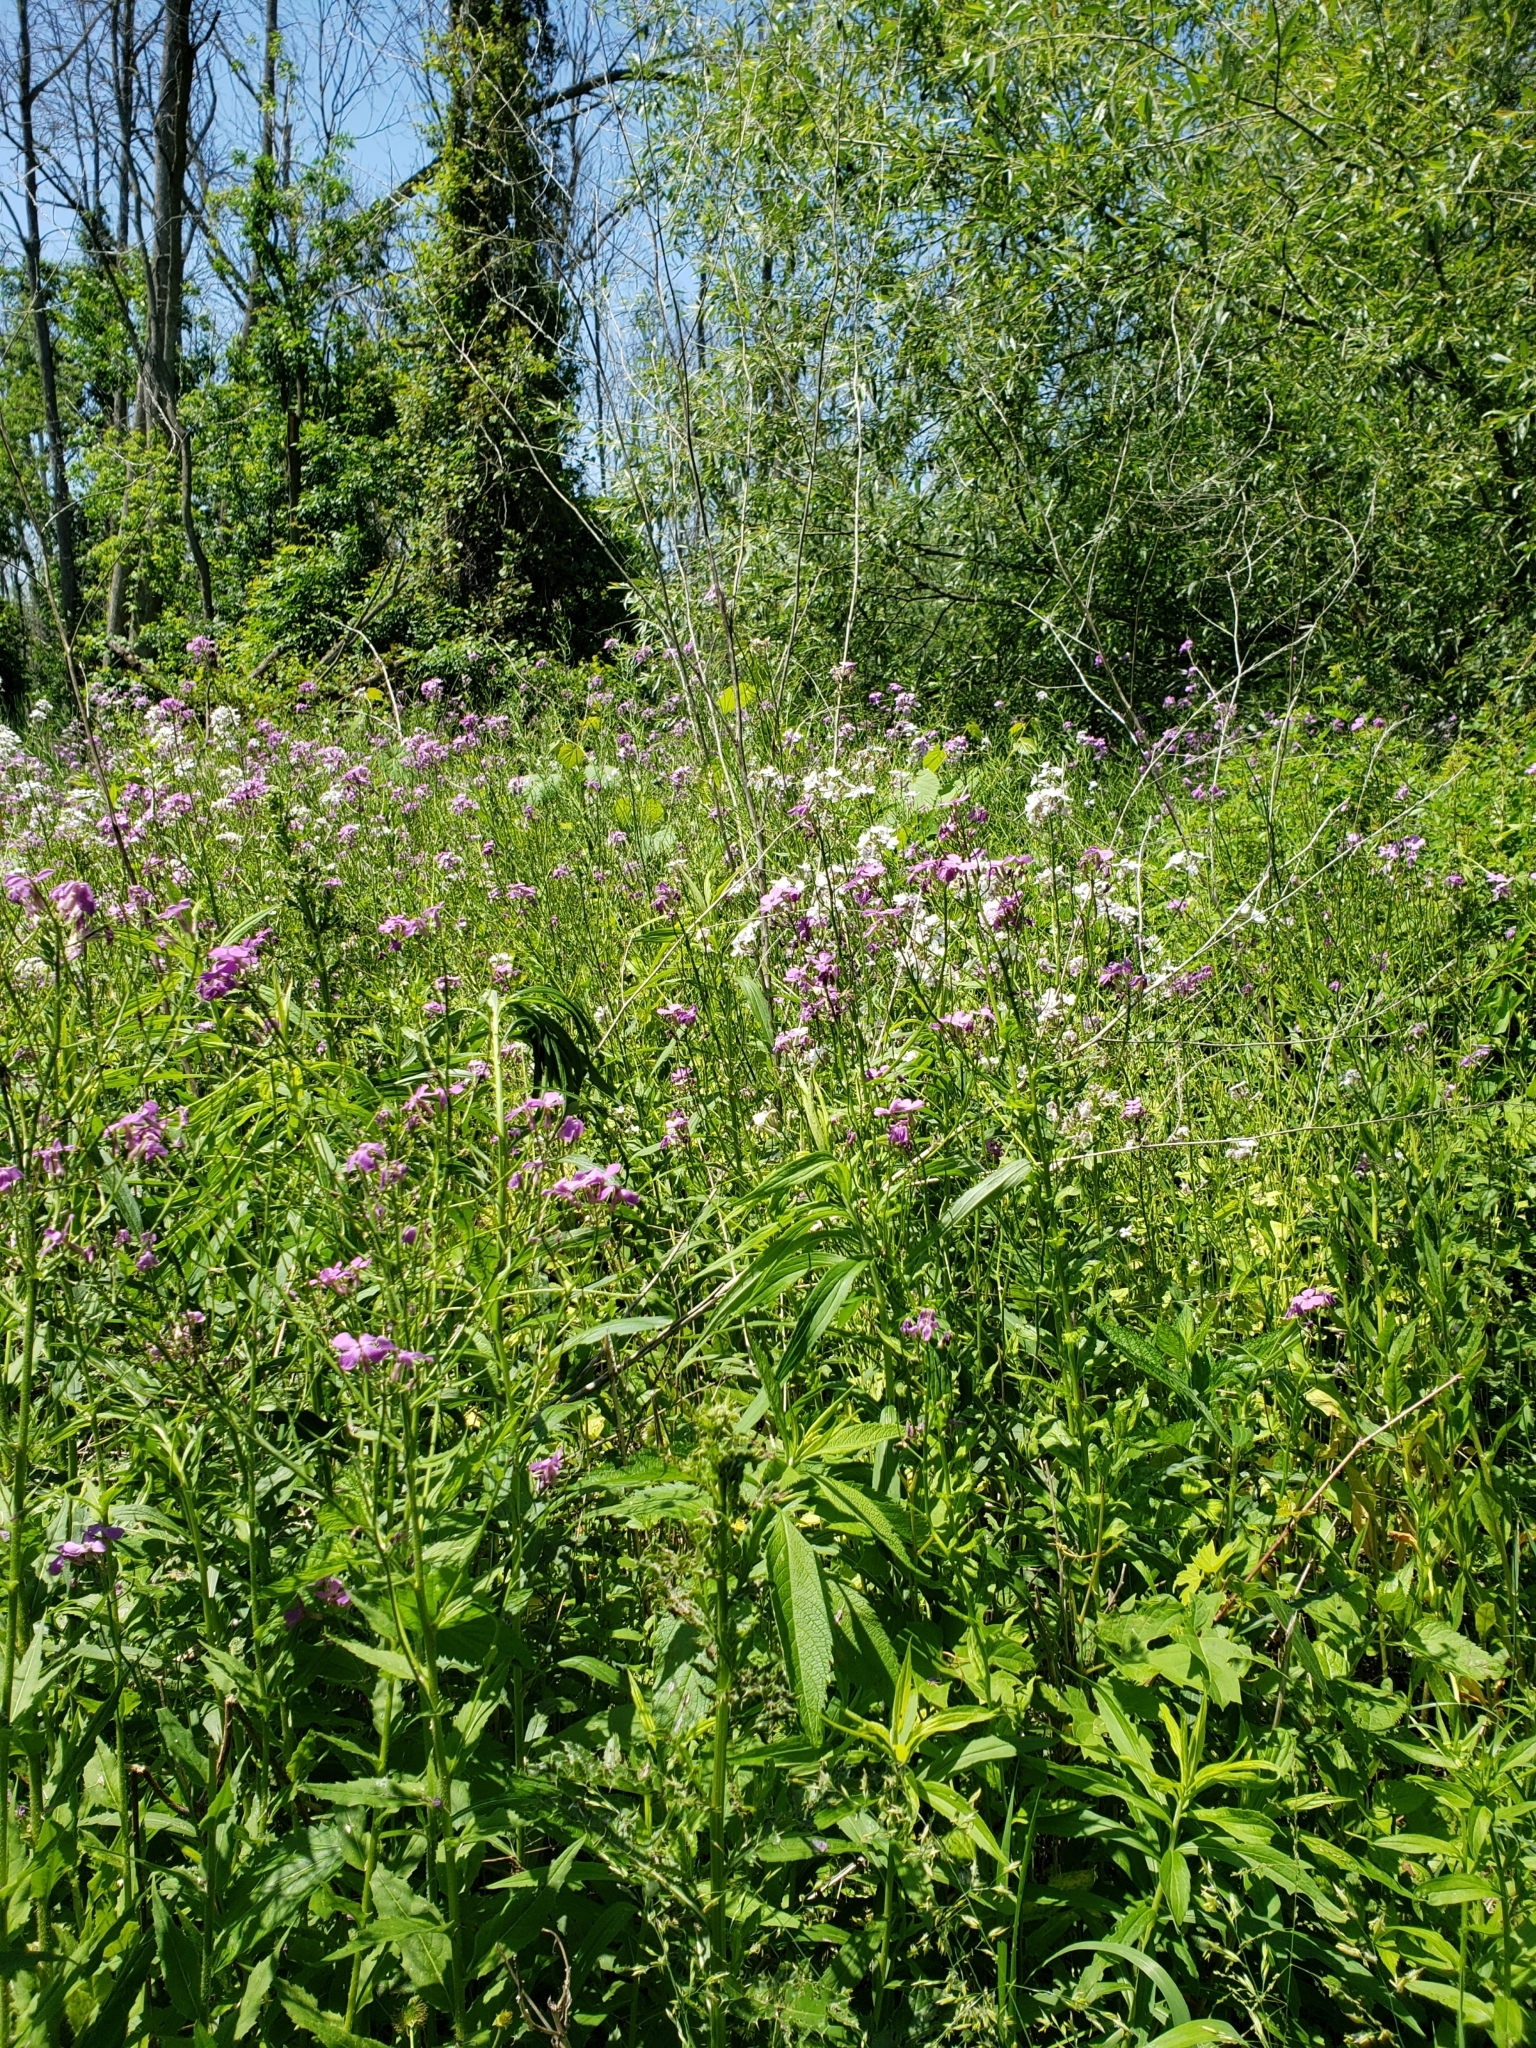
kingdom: Plantae
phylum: Tracheophyta
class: Magnoliopsida
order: Brassicales
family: Brassicaceae
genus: Hesperis
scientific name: Hesperis matronalis
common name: Dame's-violet
